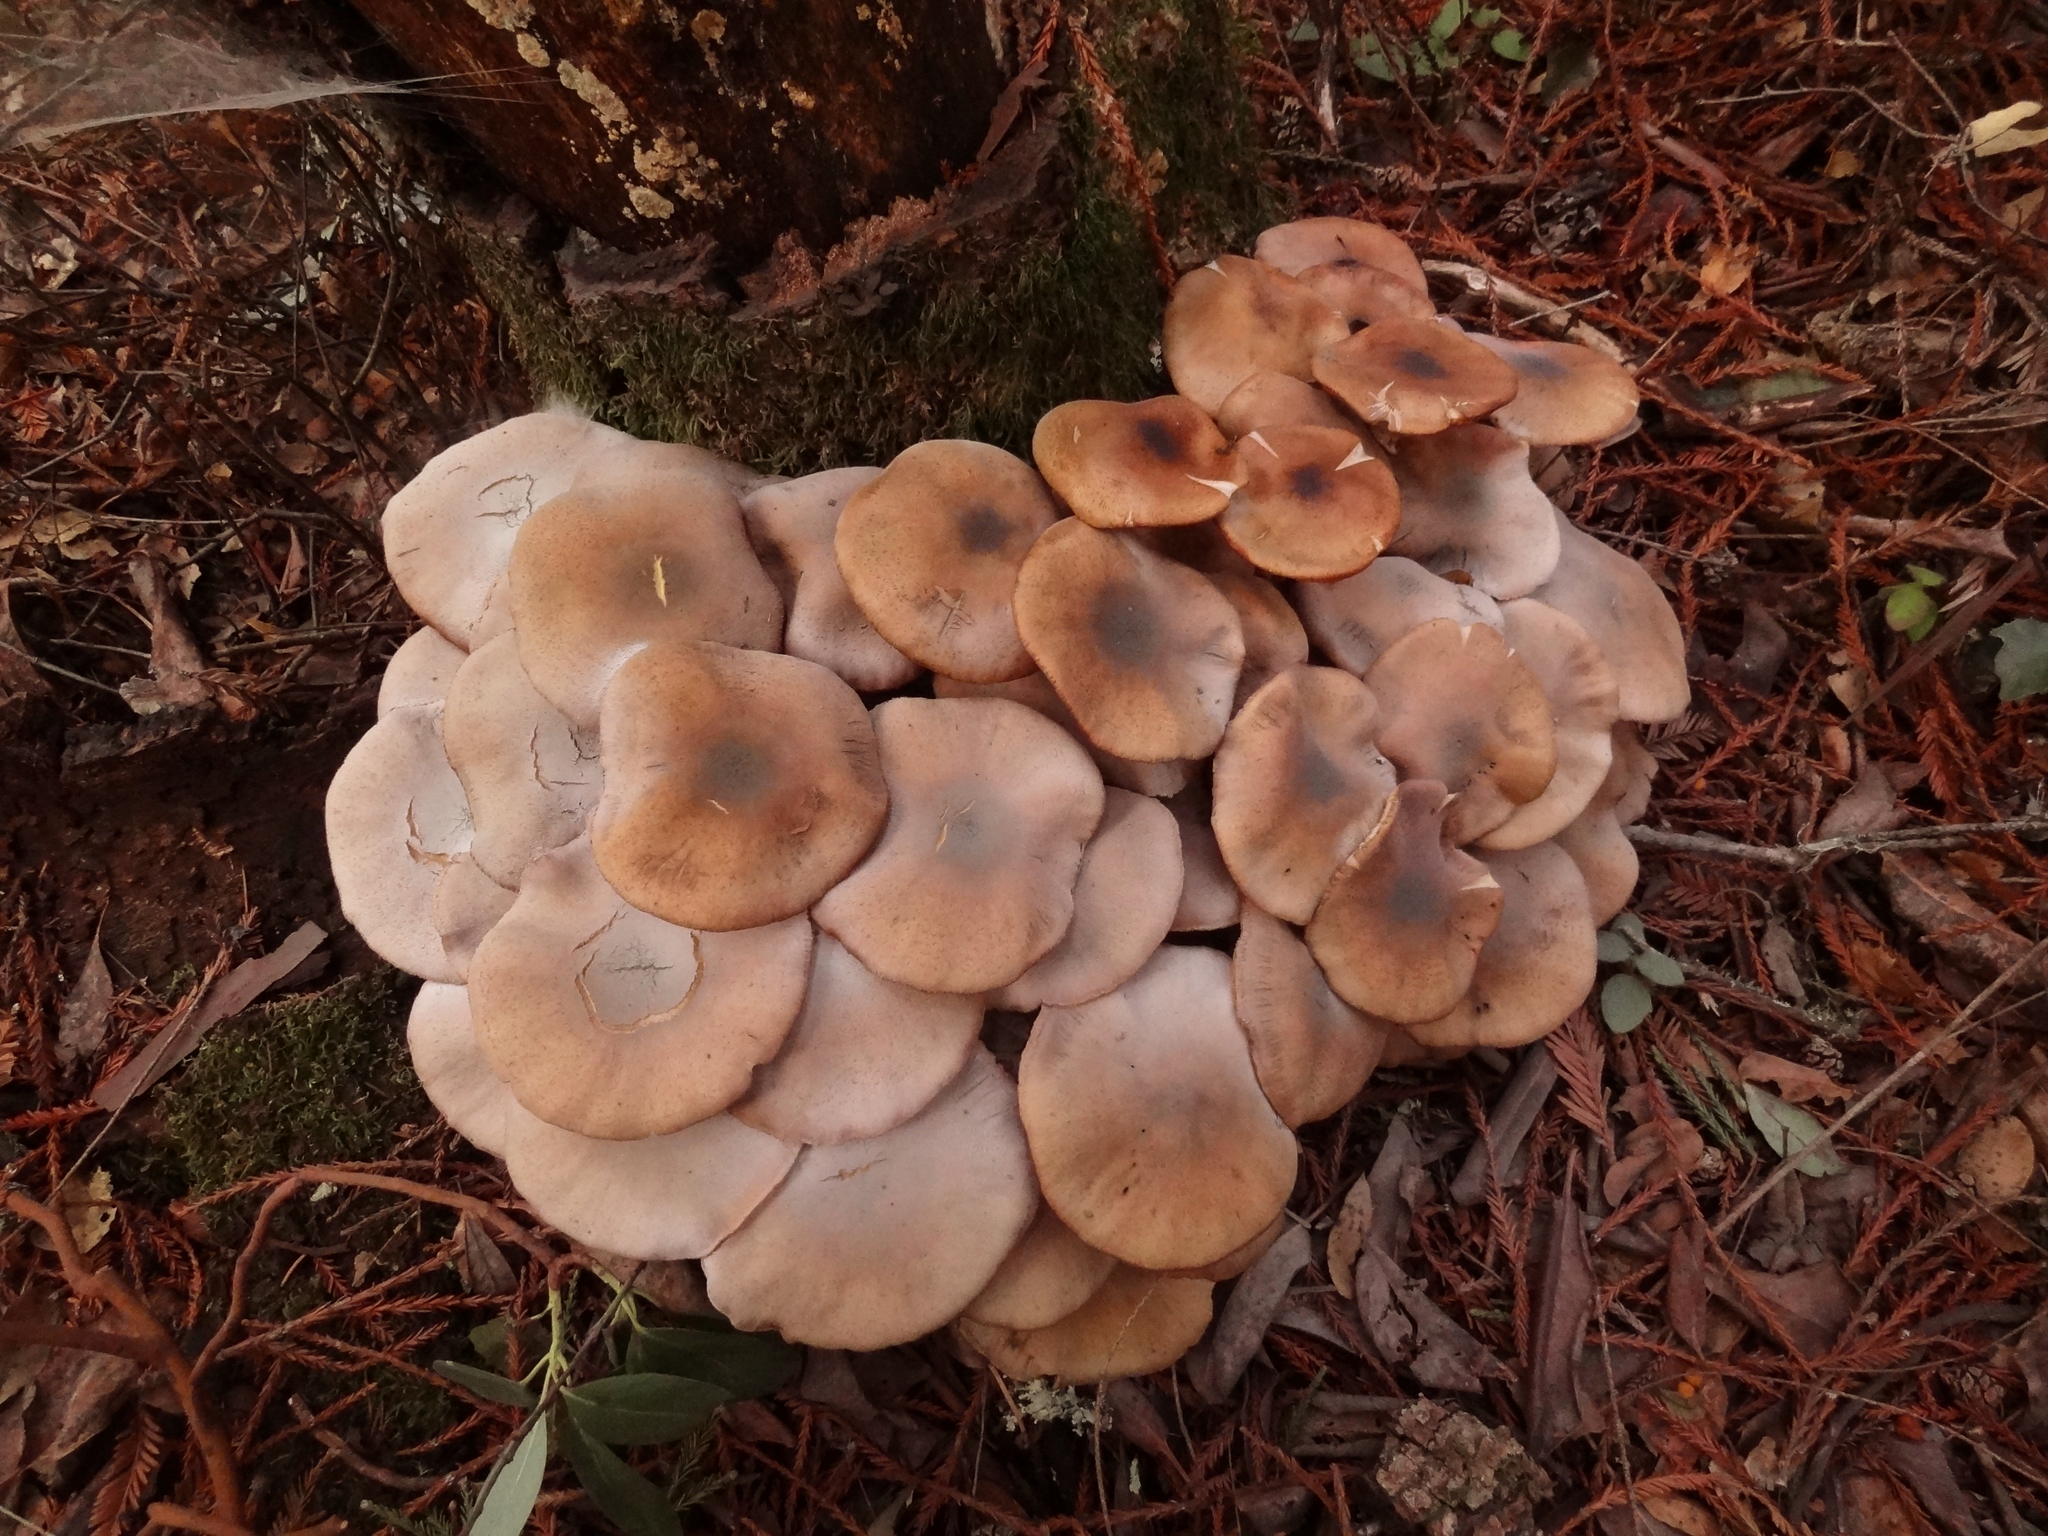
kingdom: Fungi
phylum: Basidiomycota
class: Agaricomycetes
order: Agaricales
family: Physalacriaceae
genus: Armillaria
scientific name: Armillaria mellea
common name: Honey fungus
